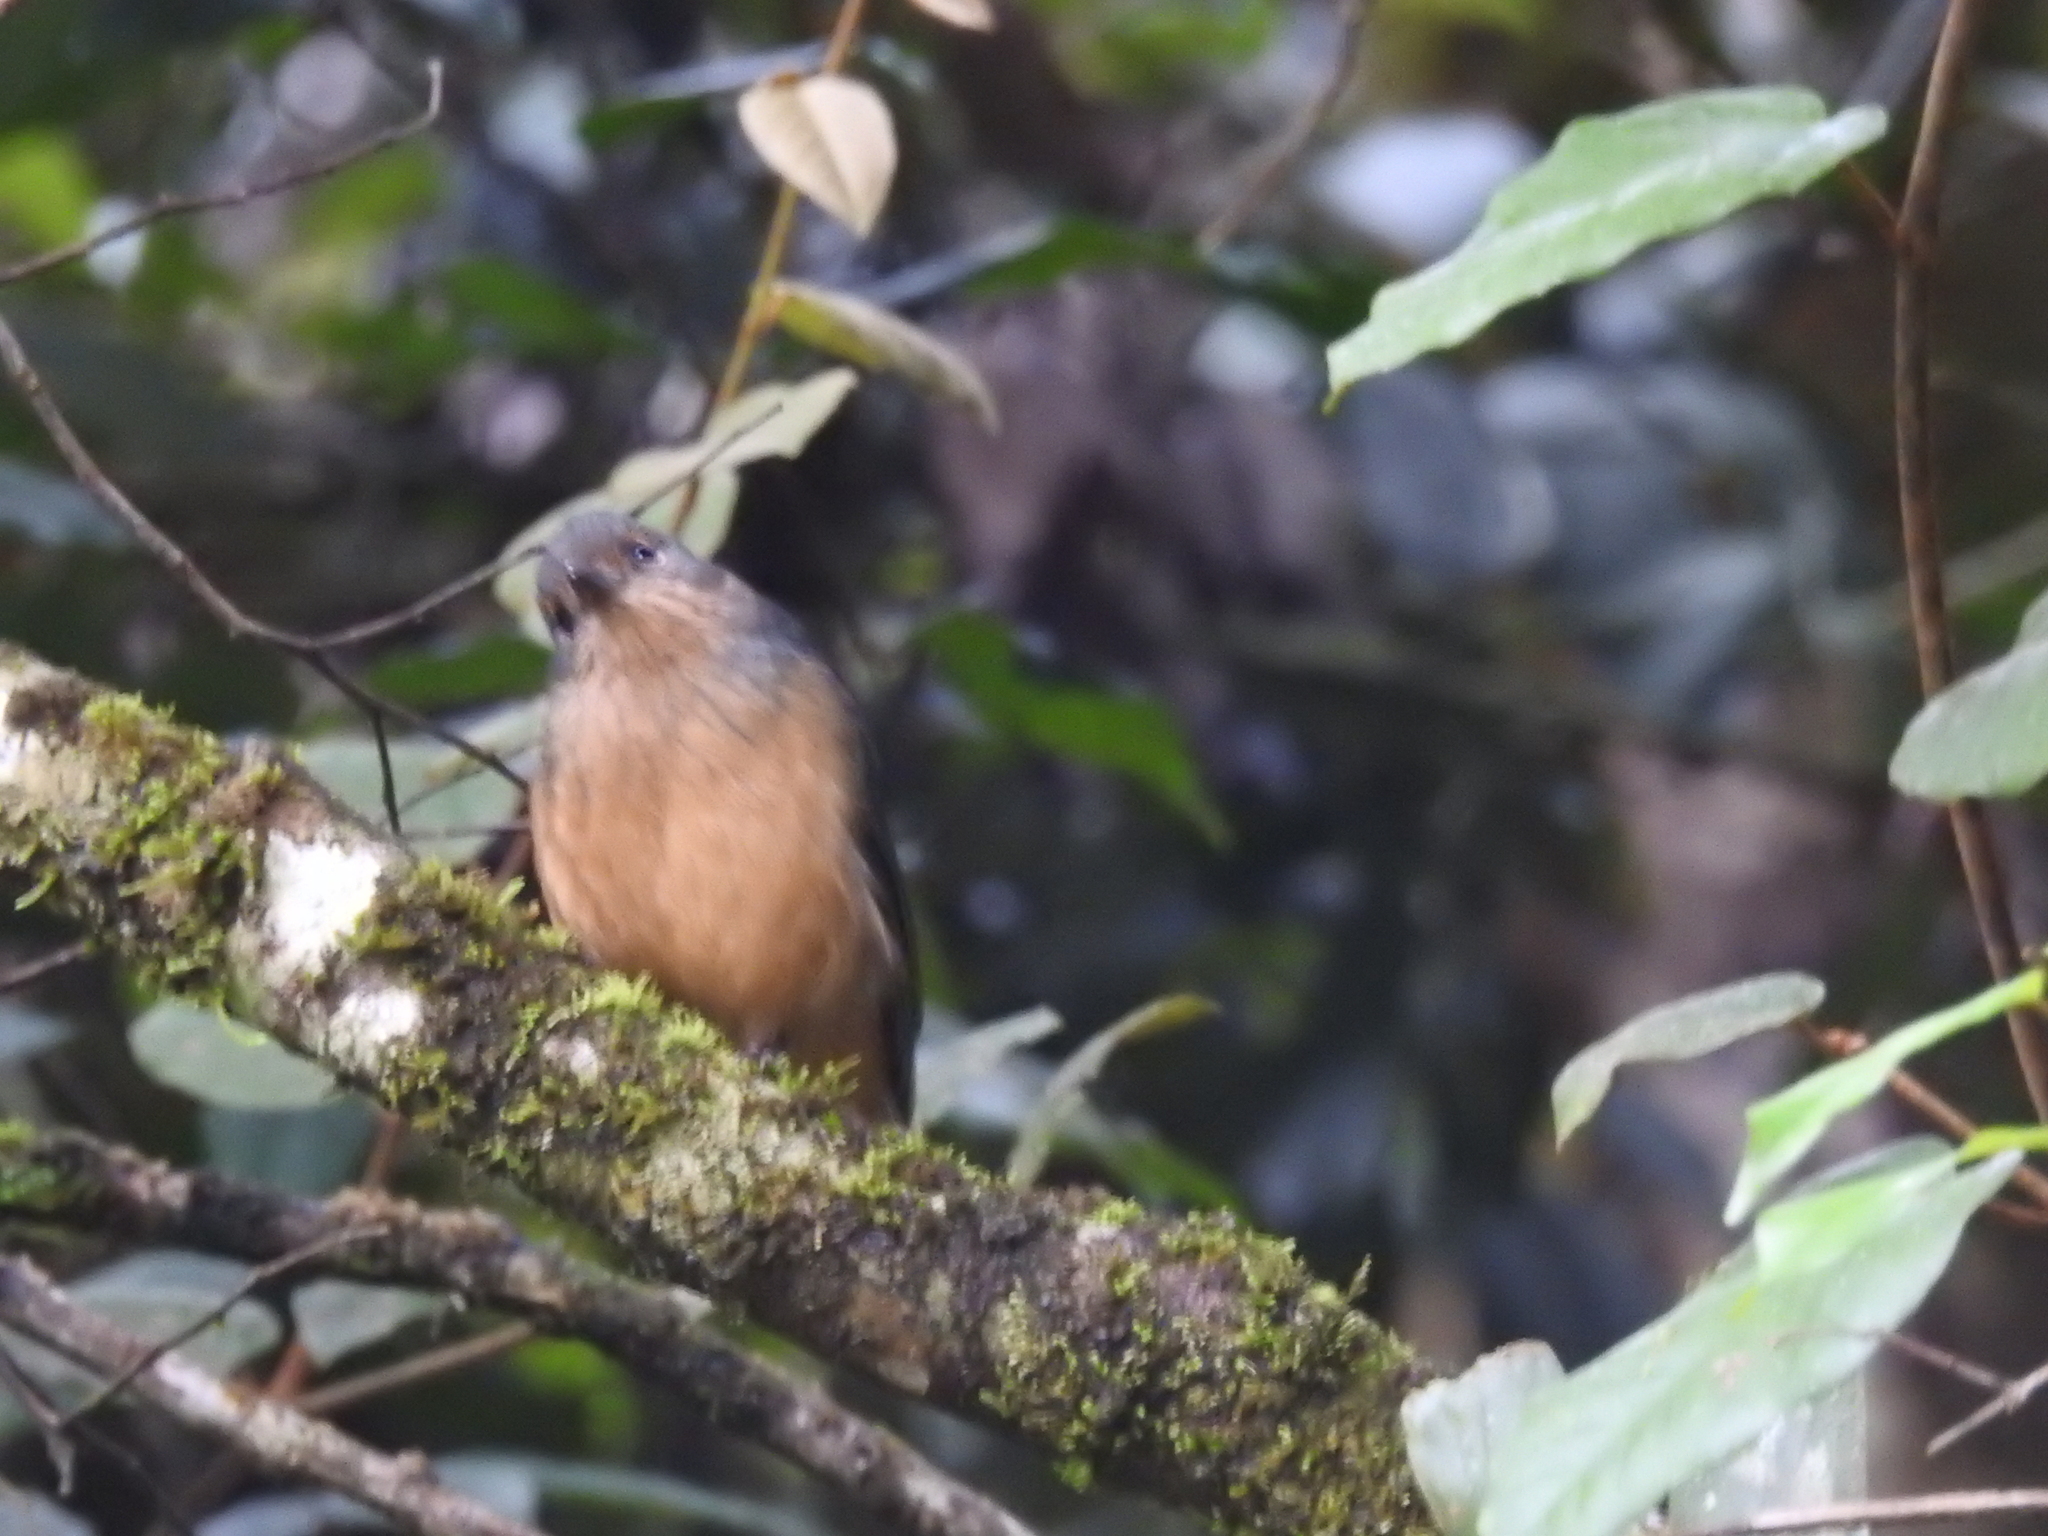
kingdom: Animalia
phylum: Chordata
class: Aves
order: Passeriformes
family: Pachycephalidae
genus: Colluricincla
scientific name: Colluricincla boweri
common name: Bower's shrikethrush
